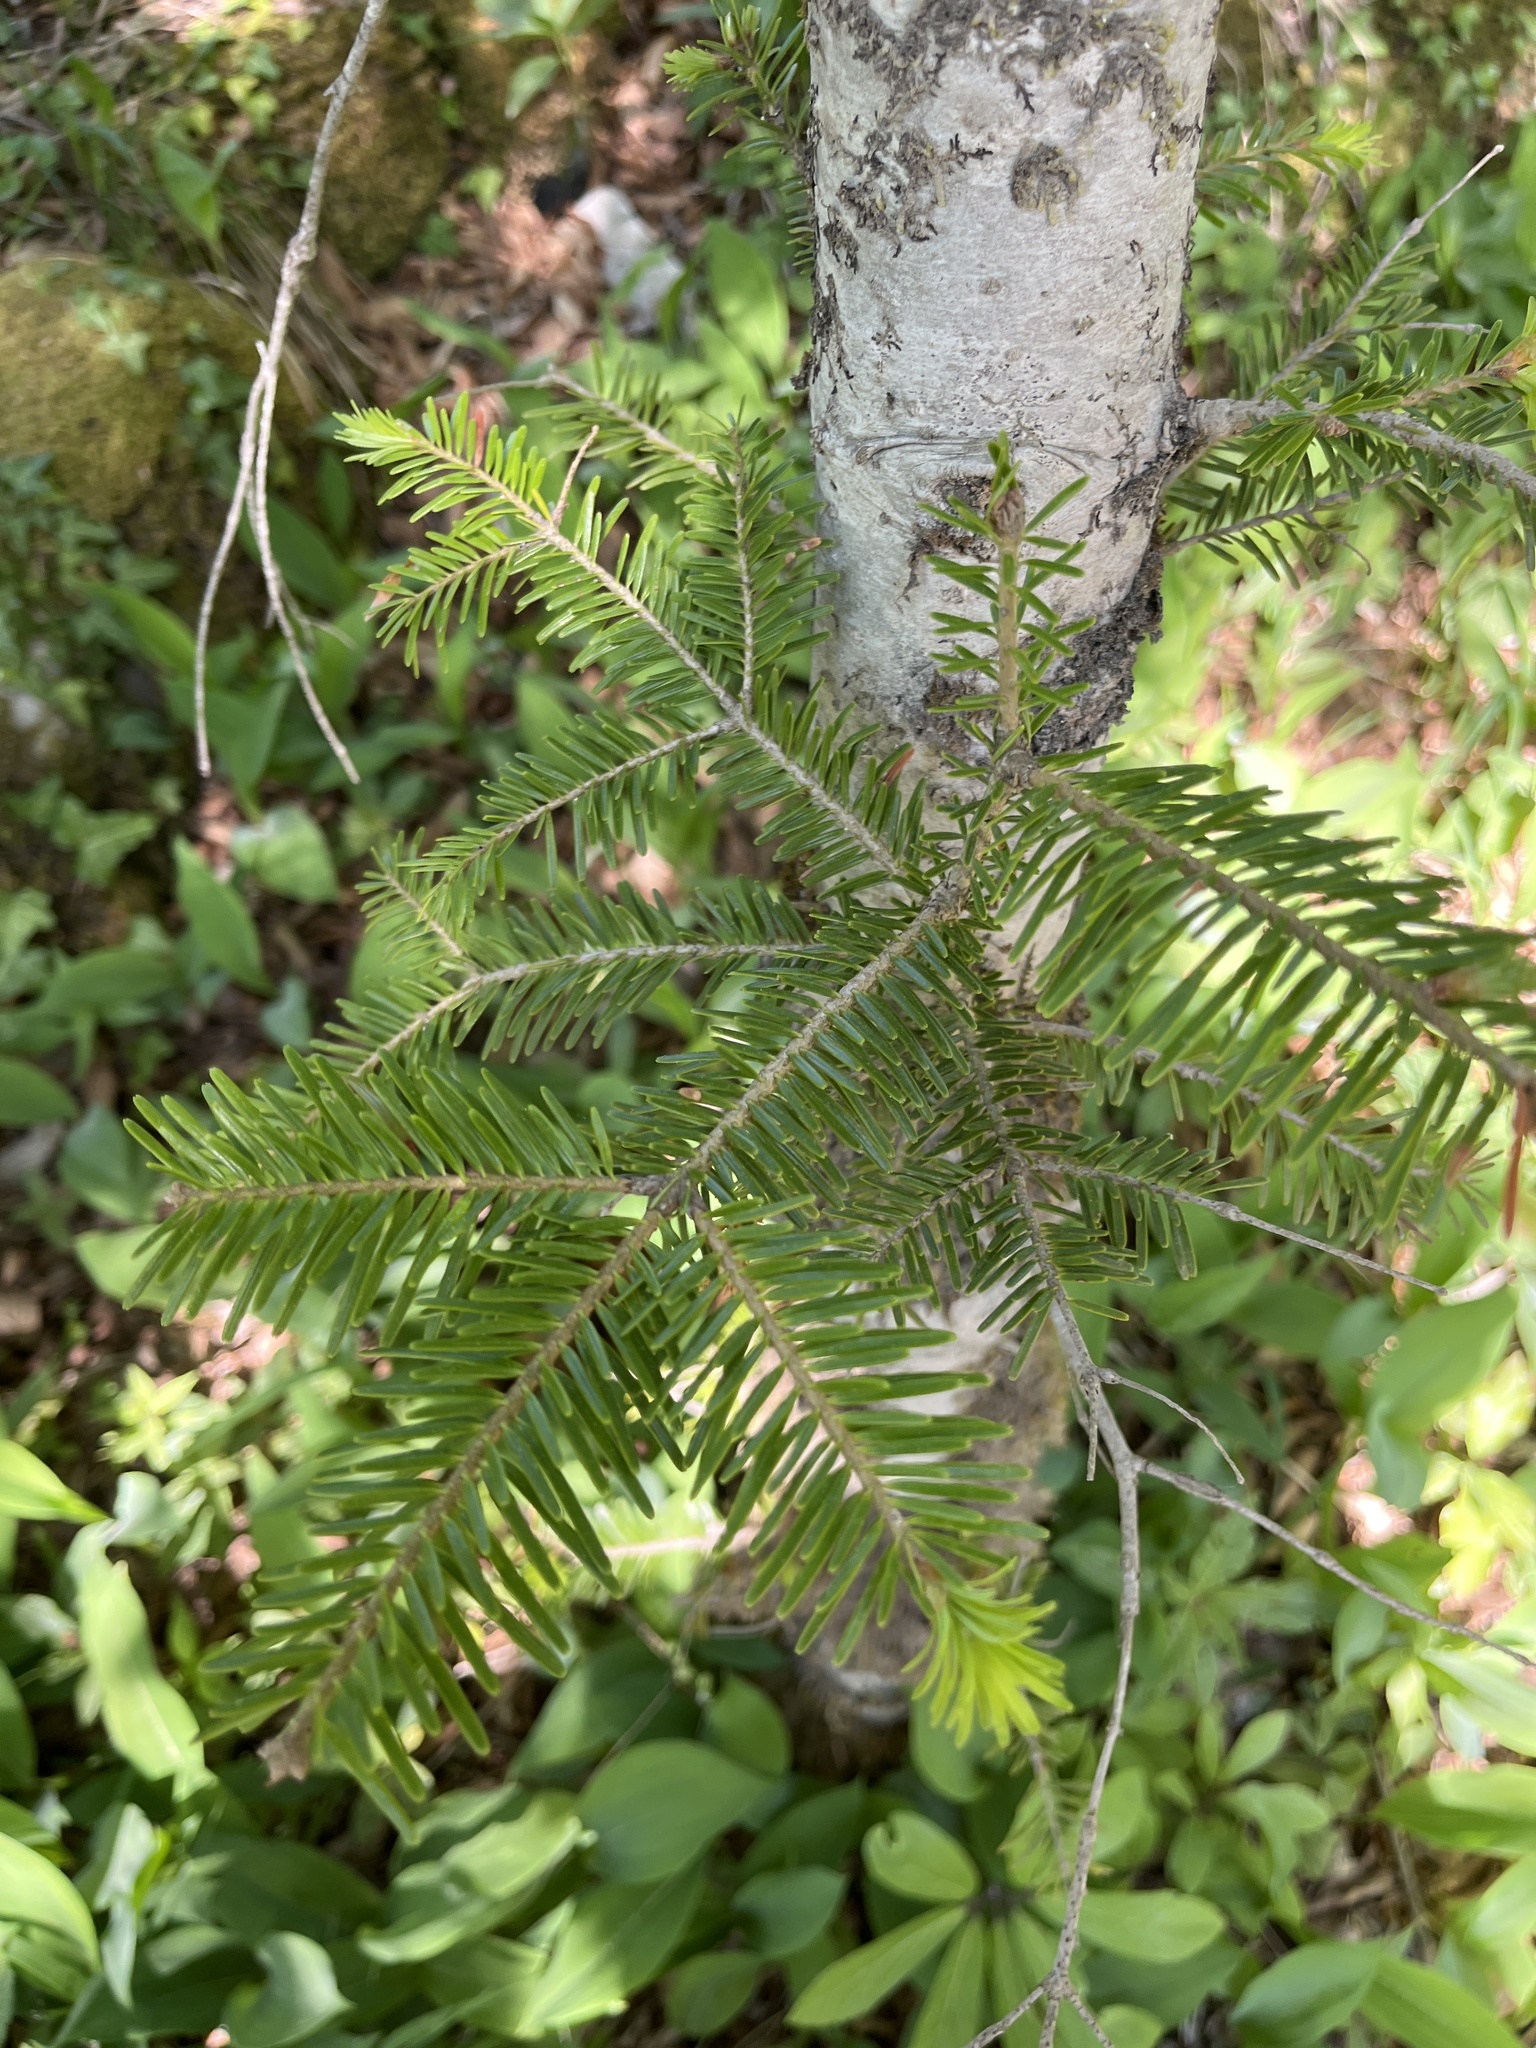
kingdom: Plantae
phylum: Tracheophyta
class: Pinopsida
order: Pinales
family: Pinaceae
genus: Abies
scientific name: Abies alba
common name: Silver fir
